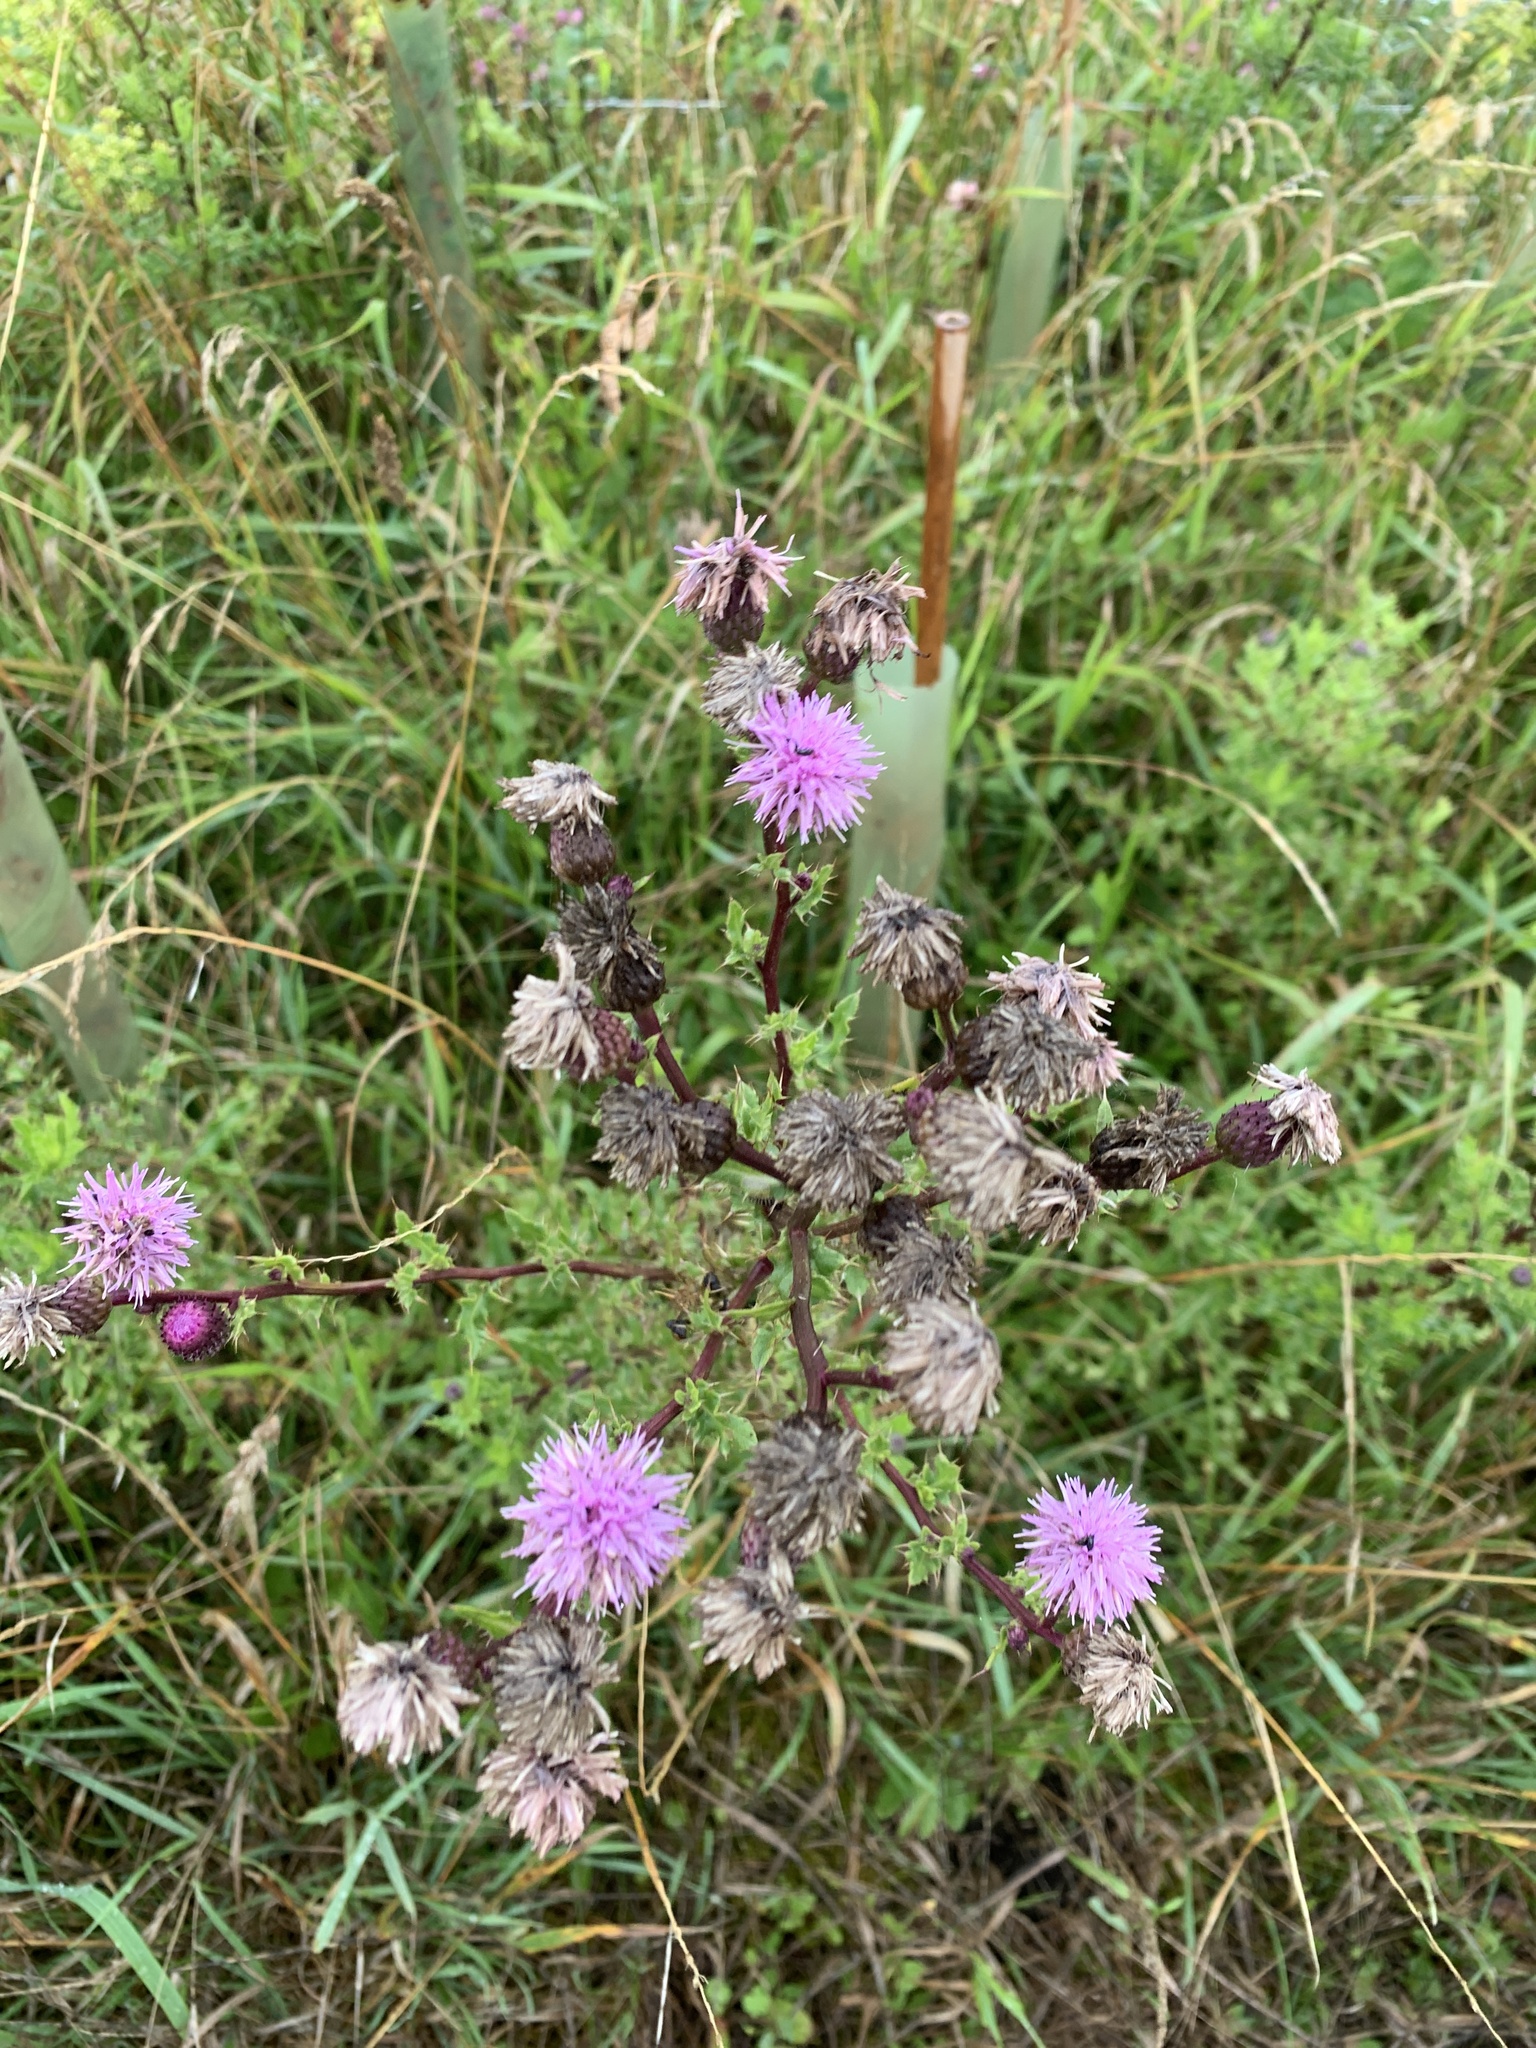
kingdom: Plantae
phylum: Tracheophyta
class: Magnoliopsida
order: Asterales
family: Asteraceae
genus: Cirsium
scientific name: Cirsium arvense
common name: Creeping thistle
